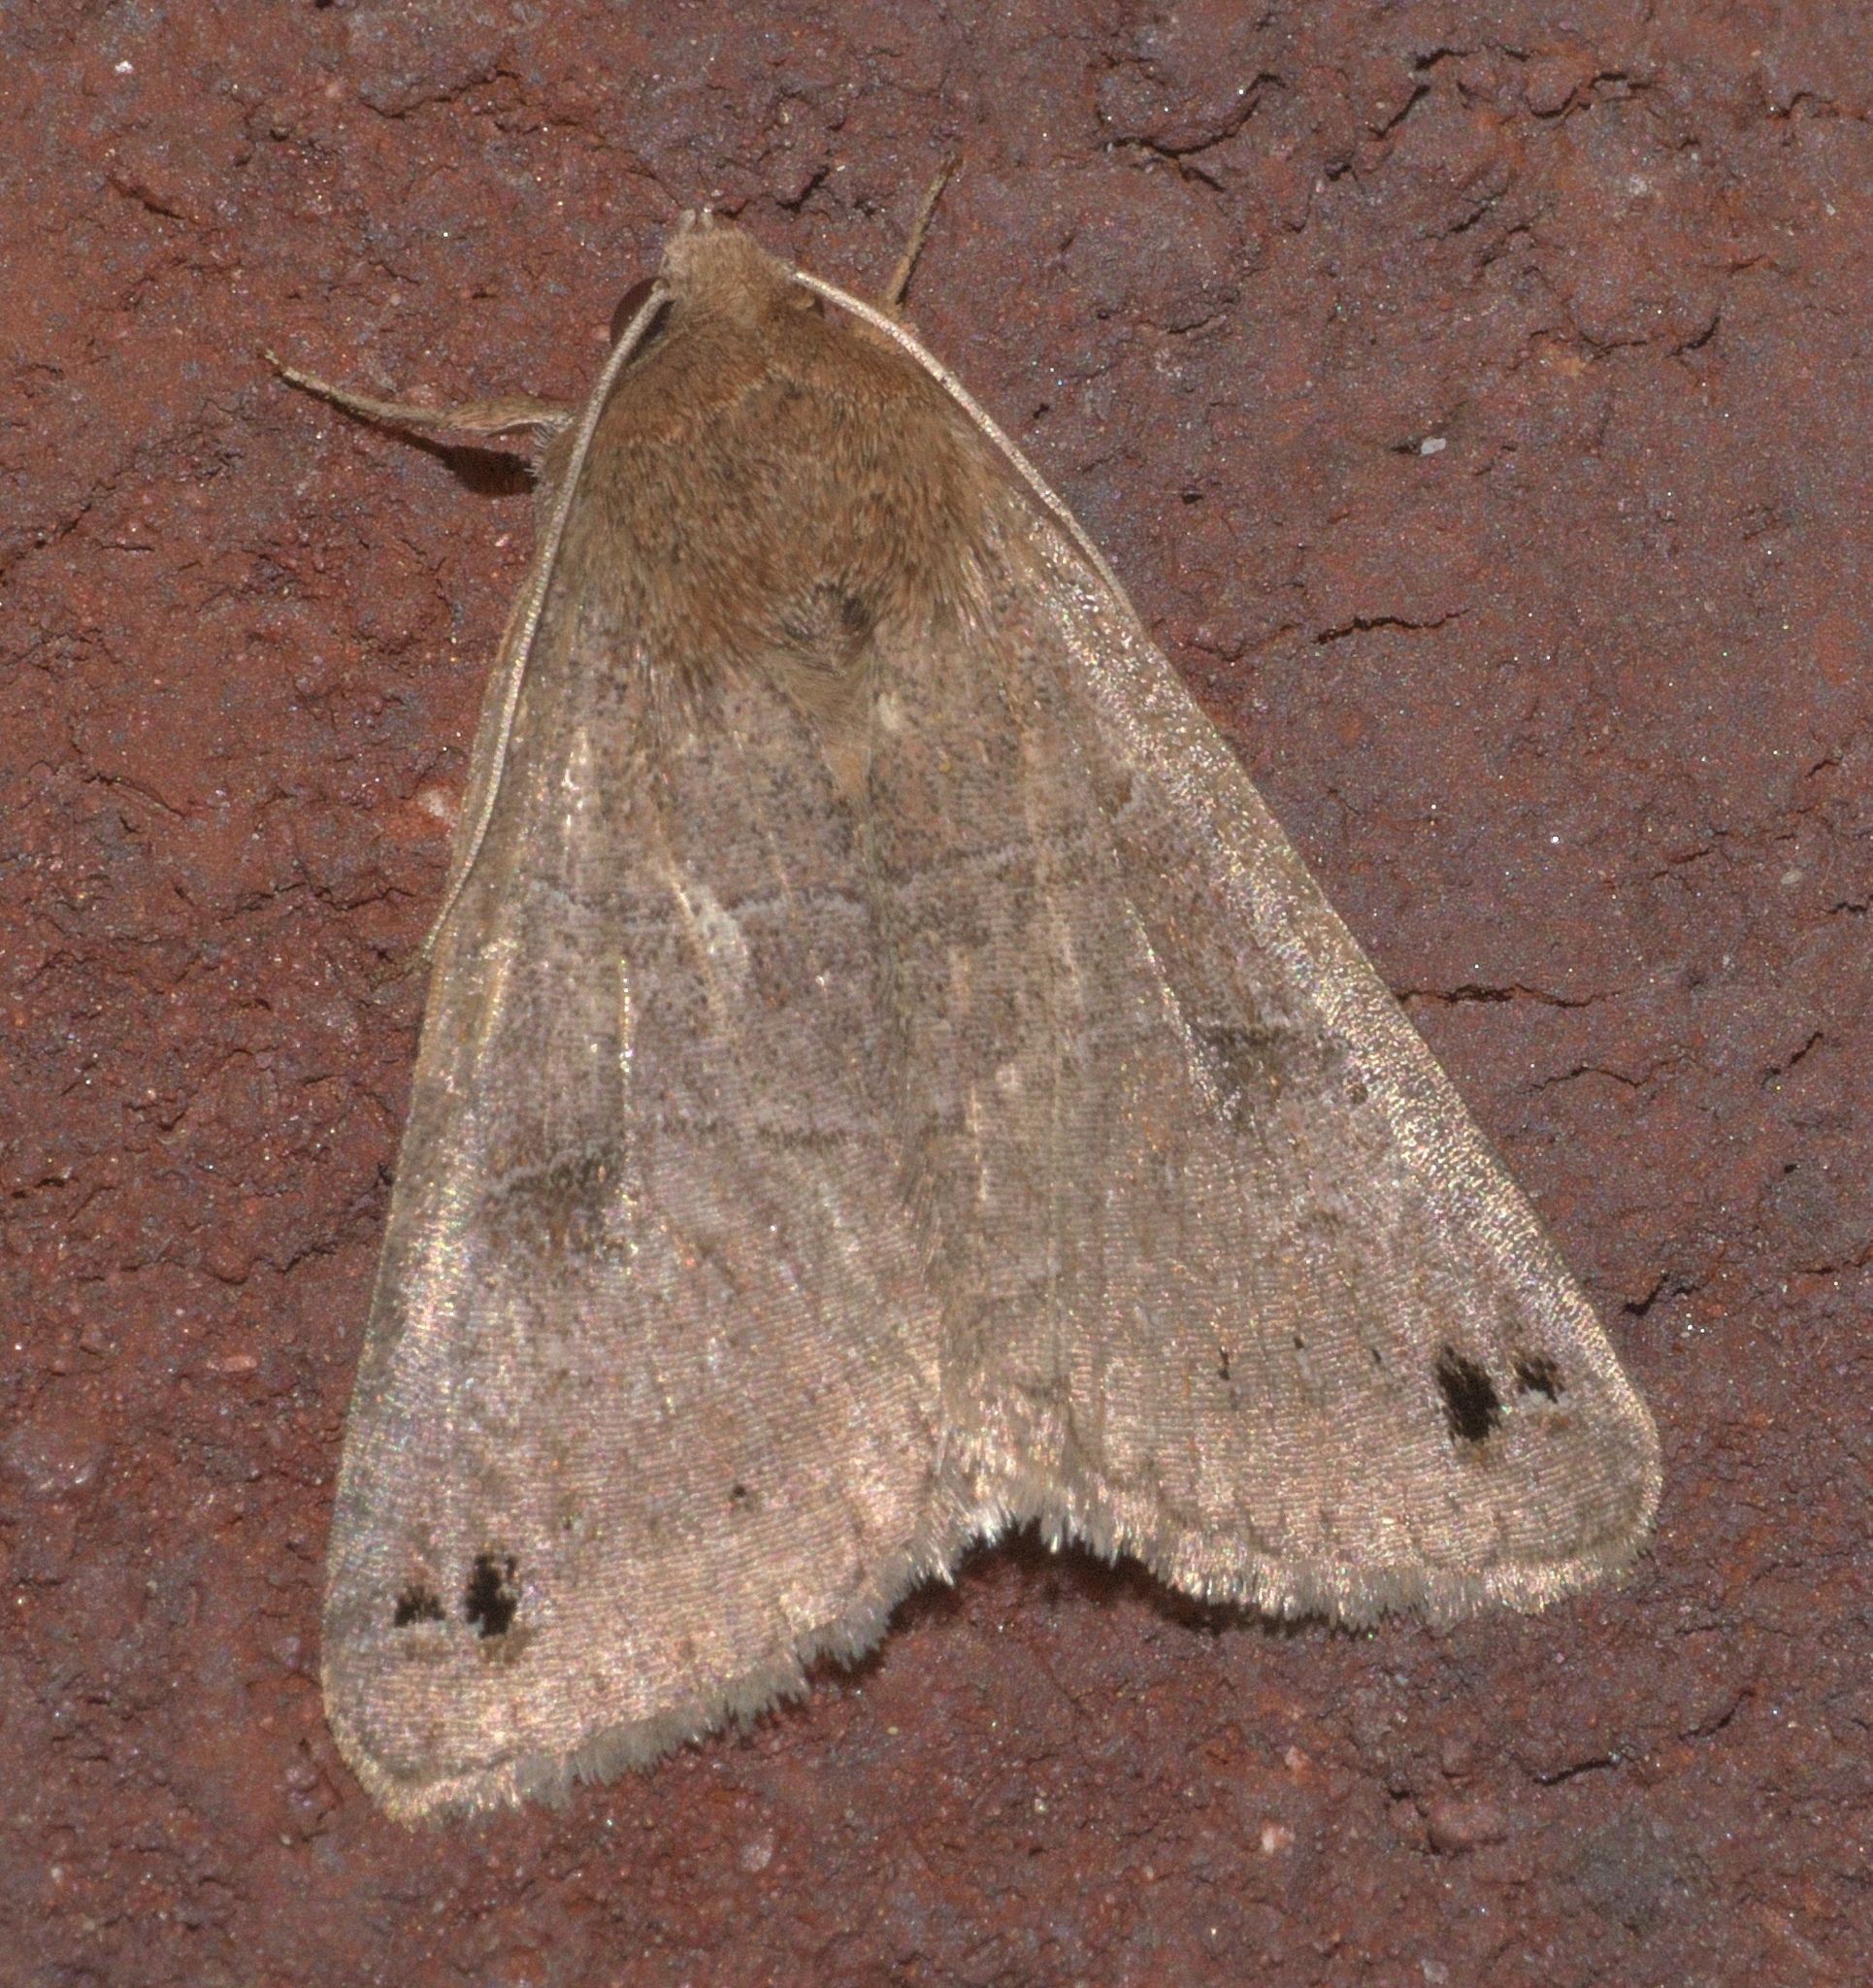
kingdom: Animalia
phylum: Arthropoda
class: Insecta
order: Lepidoptera
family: Erebidae
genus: Cissusa
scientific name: Cissusa spadix
